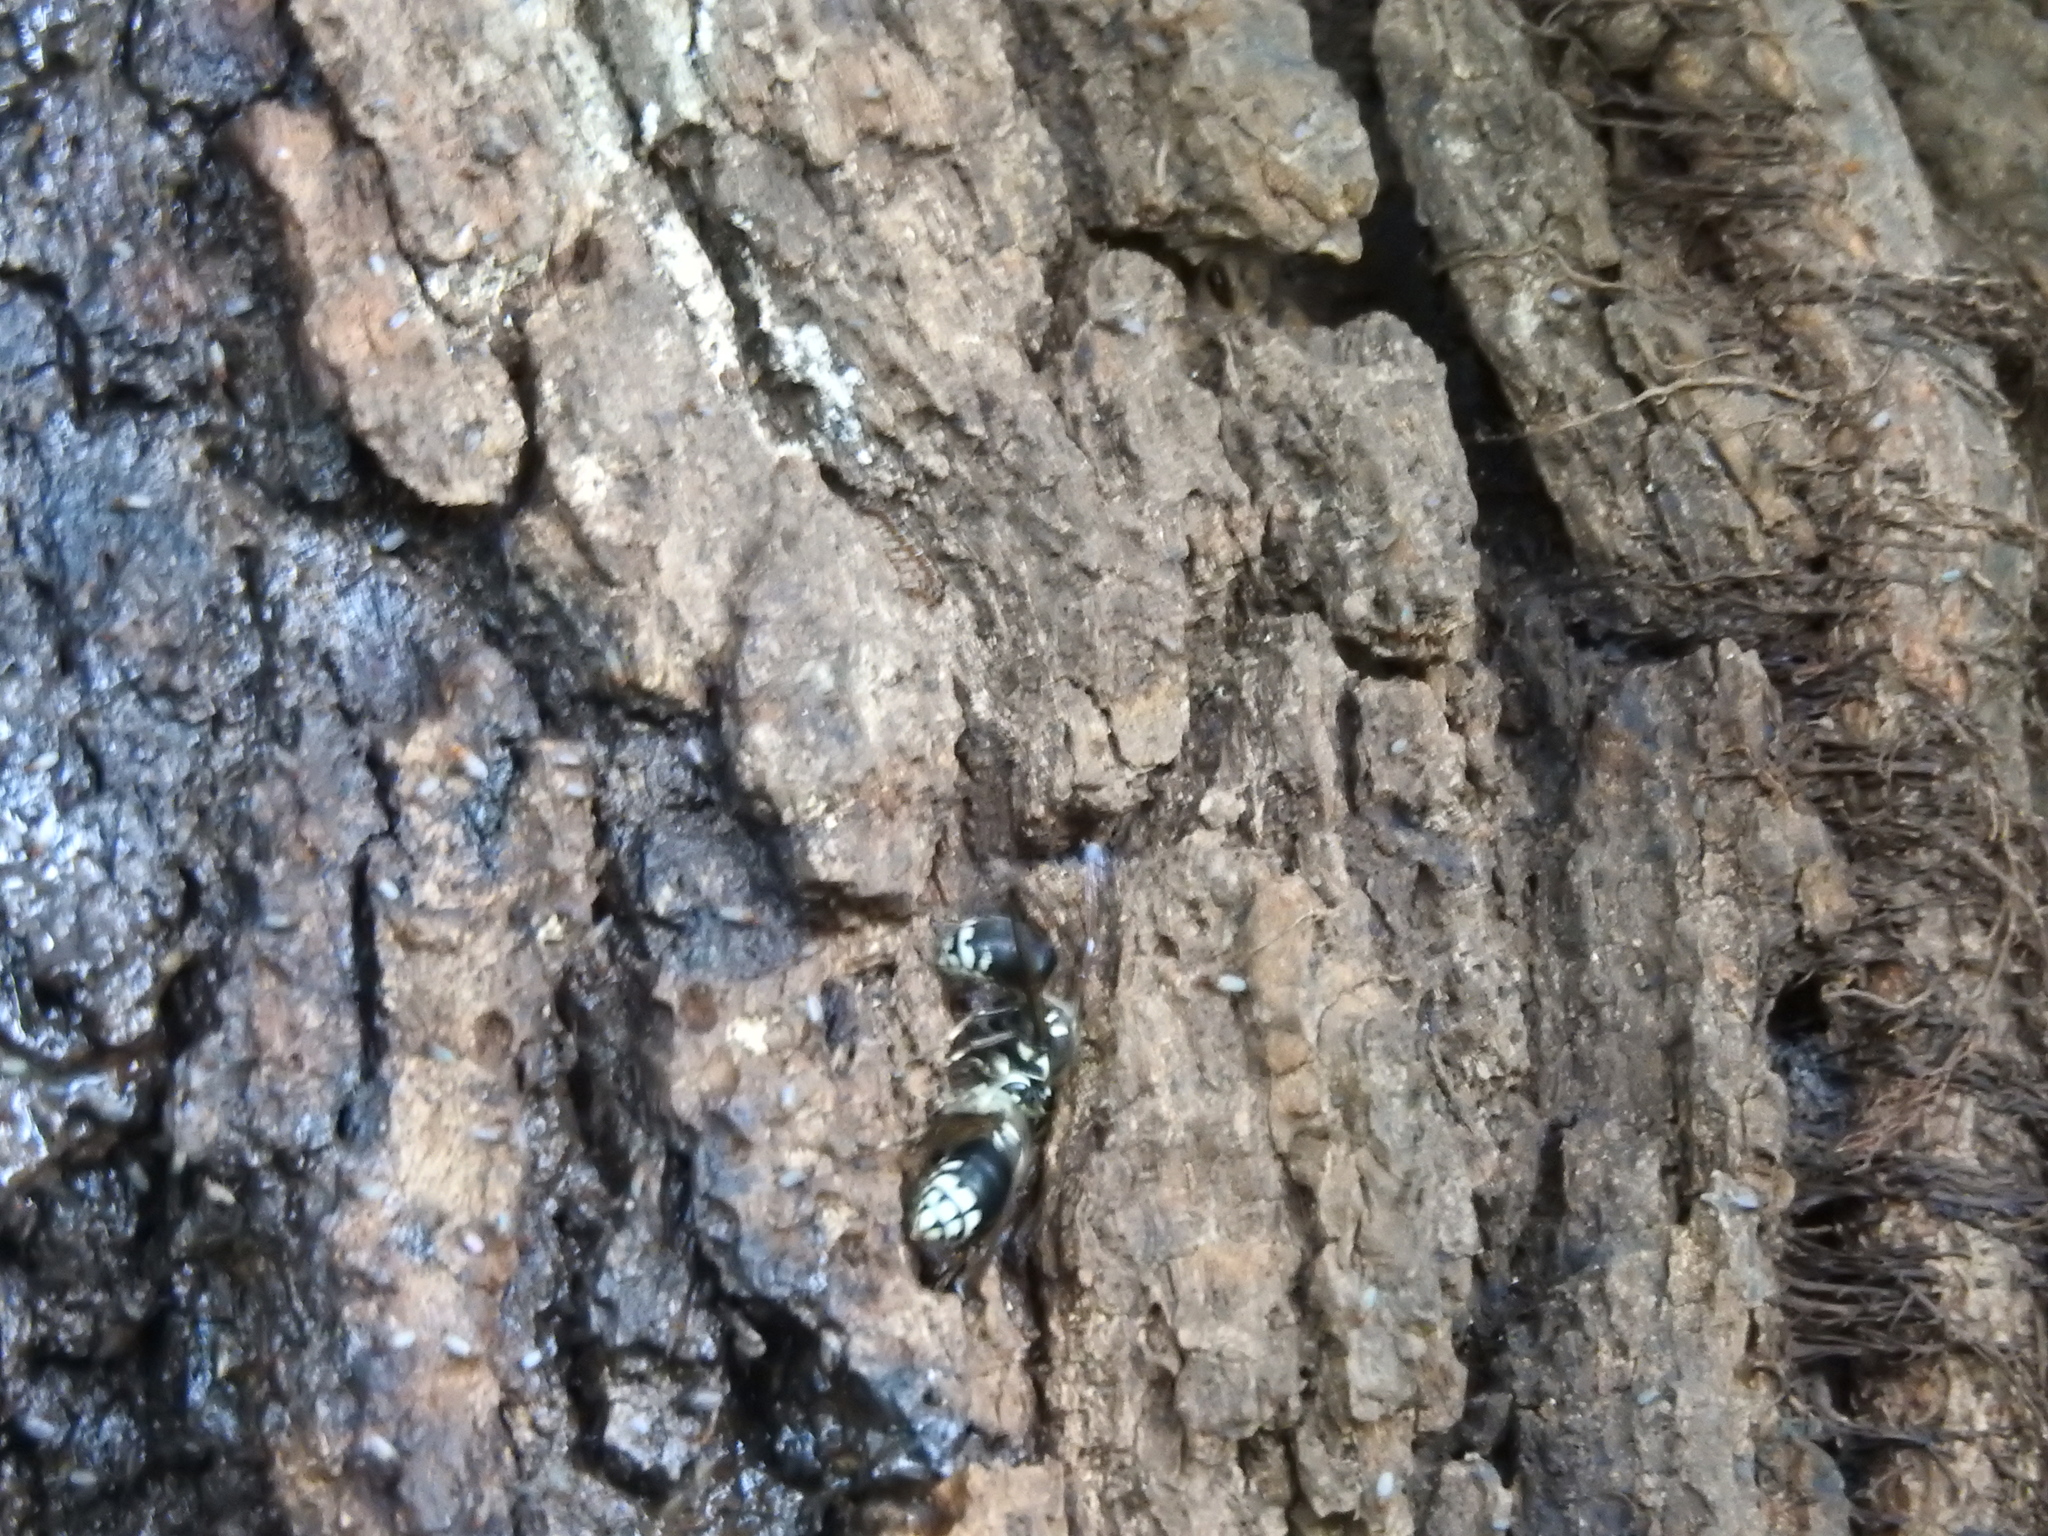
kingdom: Animalia
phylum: Arthropoda
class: Insecta
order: Hymenoptera
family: Vespidae
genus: Dolichovespula
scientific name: Dolichovespula maculata
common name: Bald-faced hornet
